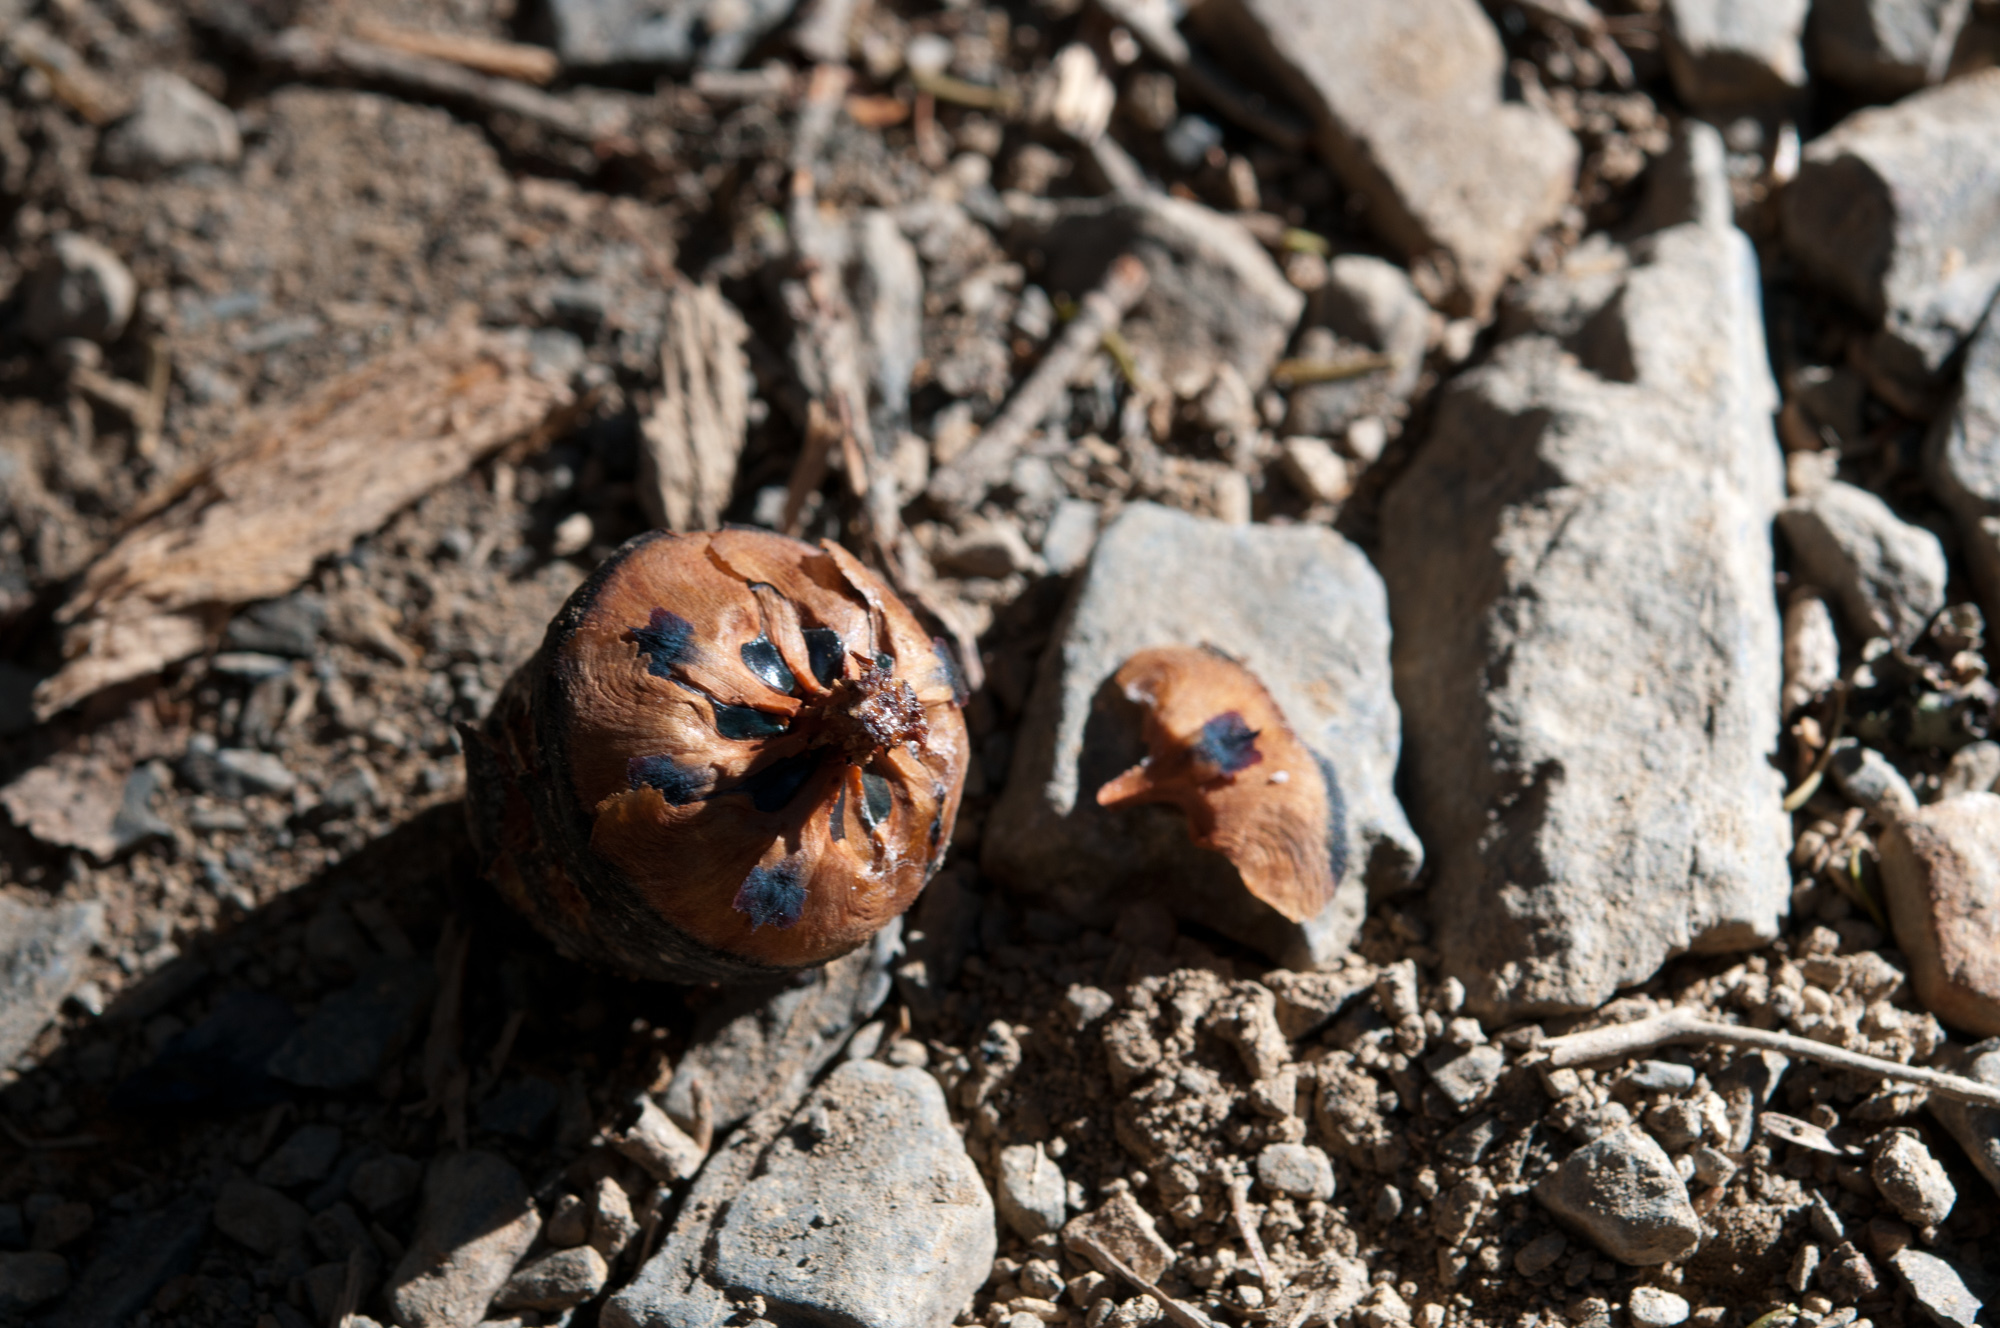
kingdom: Plantae
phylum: Tracheophyta
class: Pinopsida
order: Pinales
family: Pinaceae
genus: Abies
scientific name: Abies kawakamii
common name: Taiwan fir
